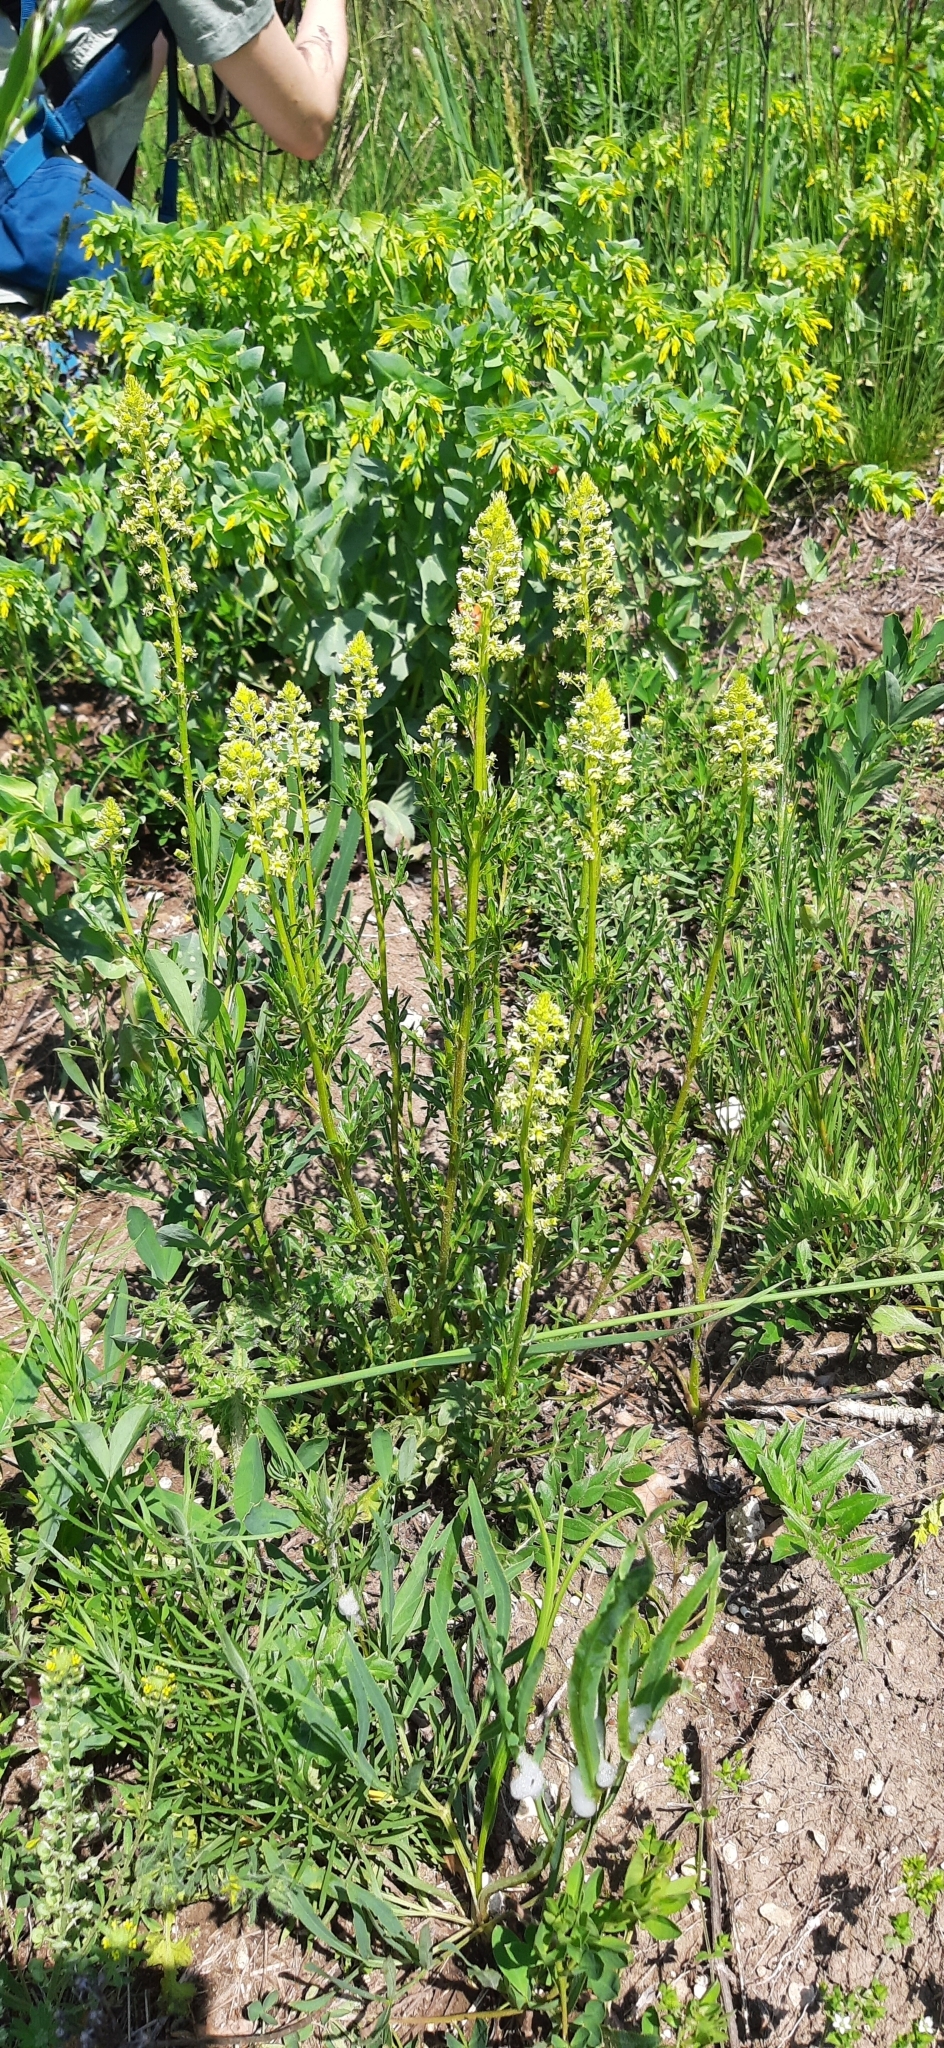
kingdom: Plantae
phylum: Tracheophyta
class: Magnoliopsida
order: Brassicales
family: Resedaceae
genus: Reseda
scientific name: Reseda lutea
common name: Wild mignonette
